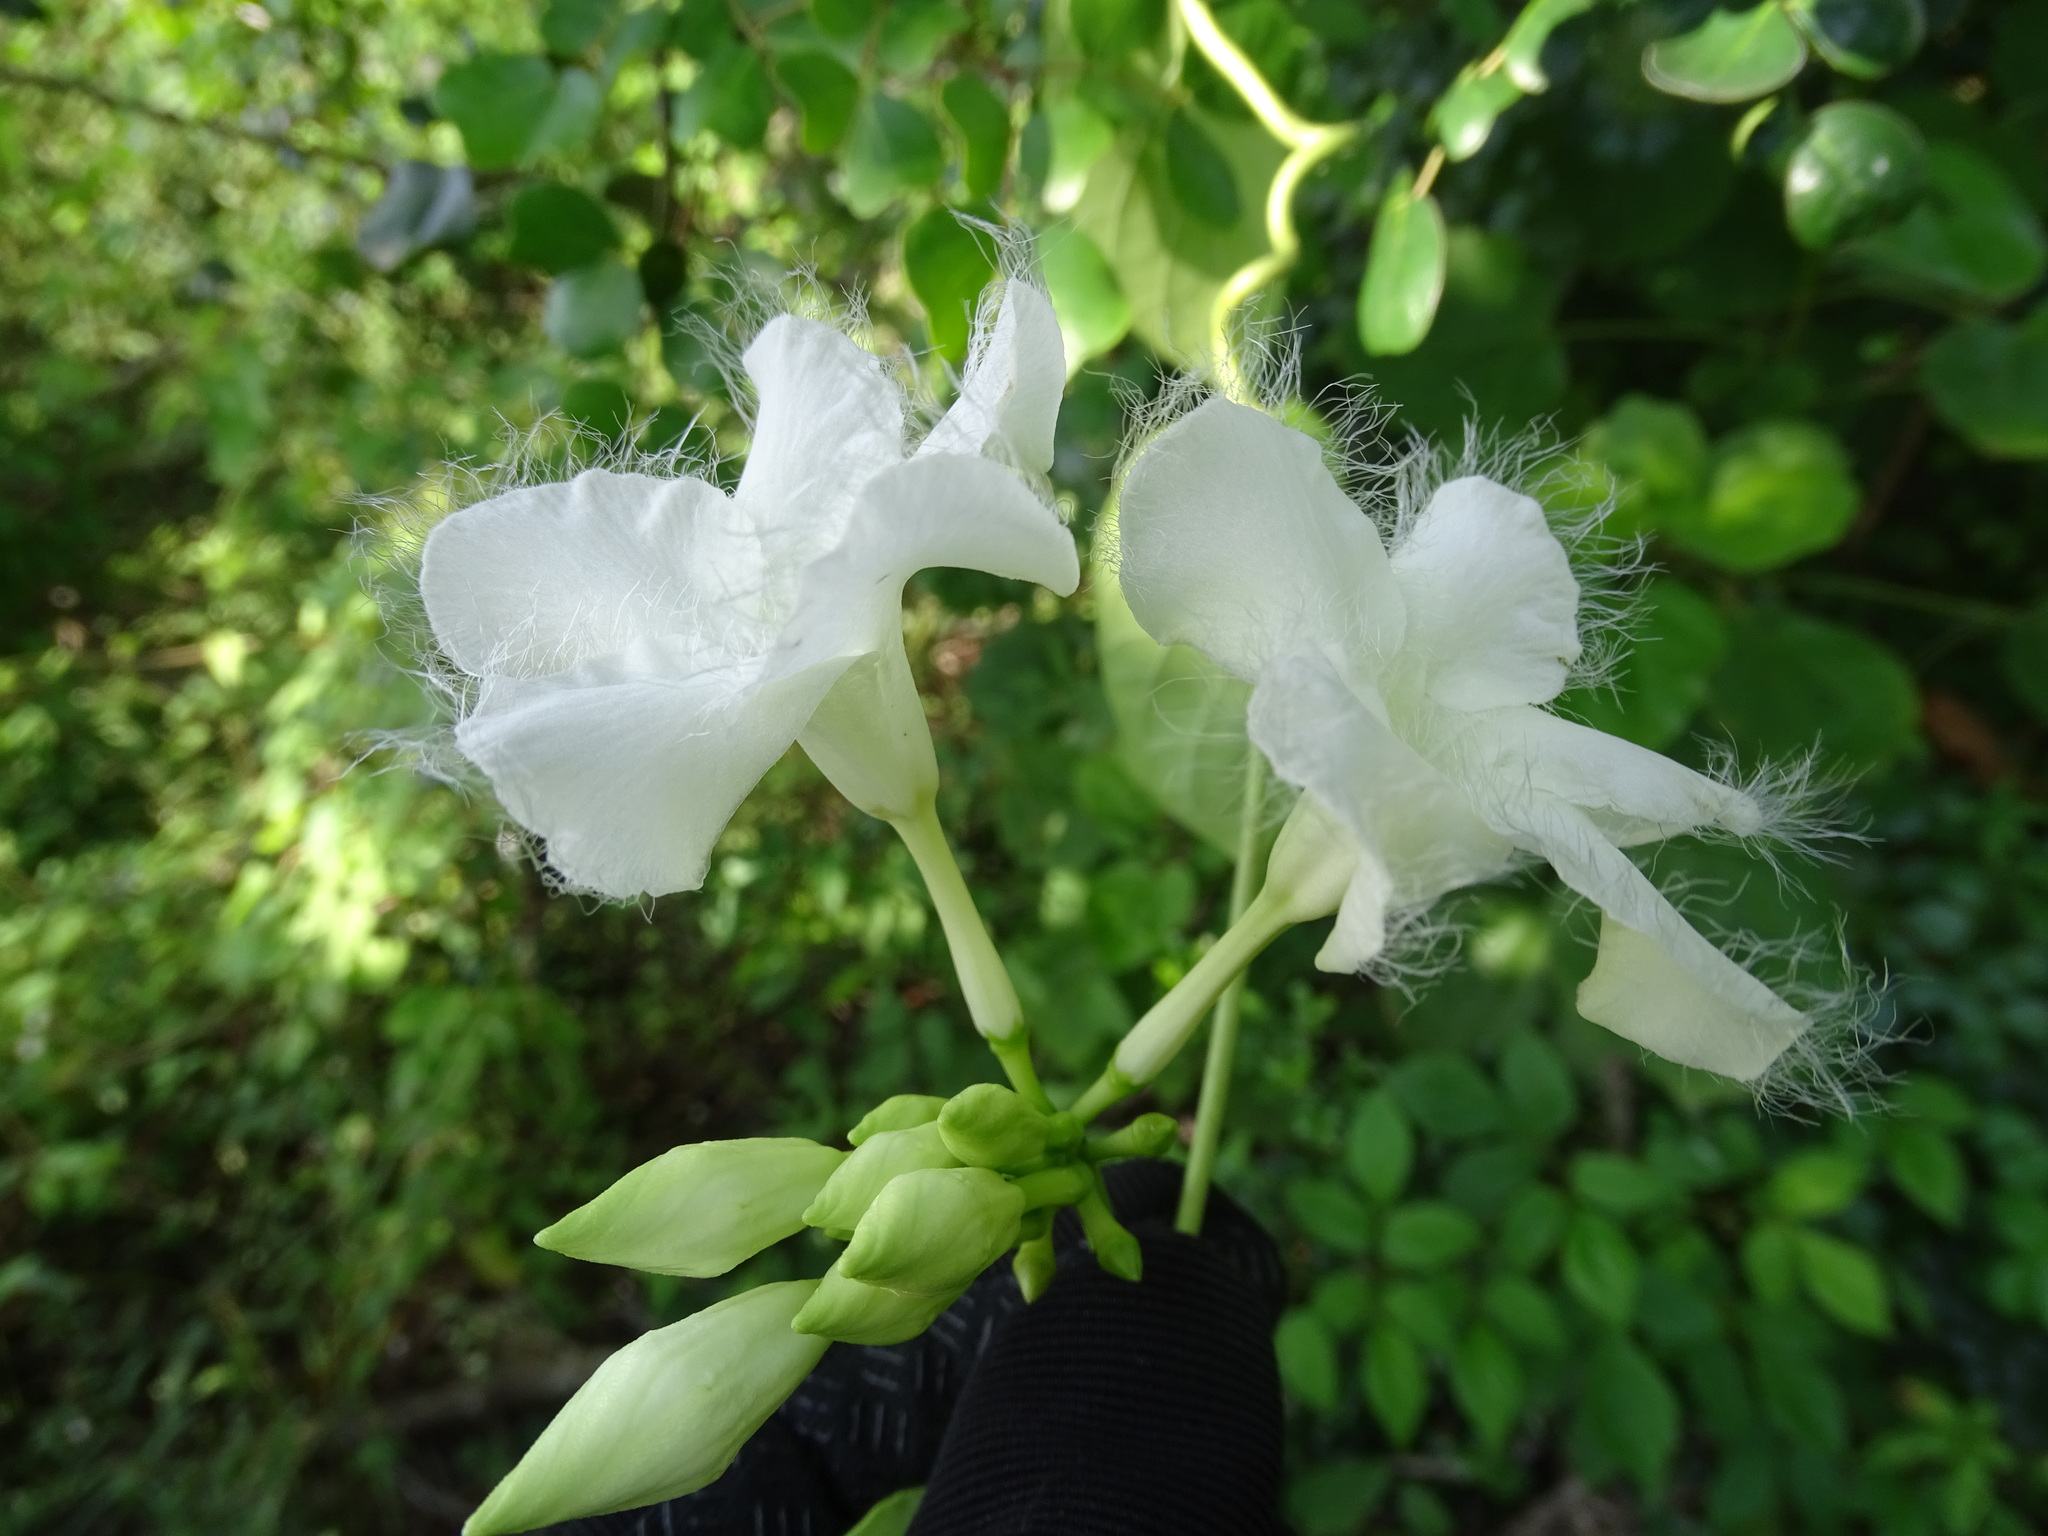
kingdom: Plantae
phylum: Tracheophyta
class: Magnoliopsida
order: Gentianales
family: Apocynaceae
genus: Echites
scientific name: Echites panduratus
